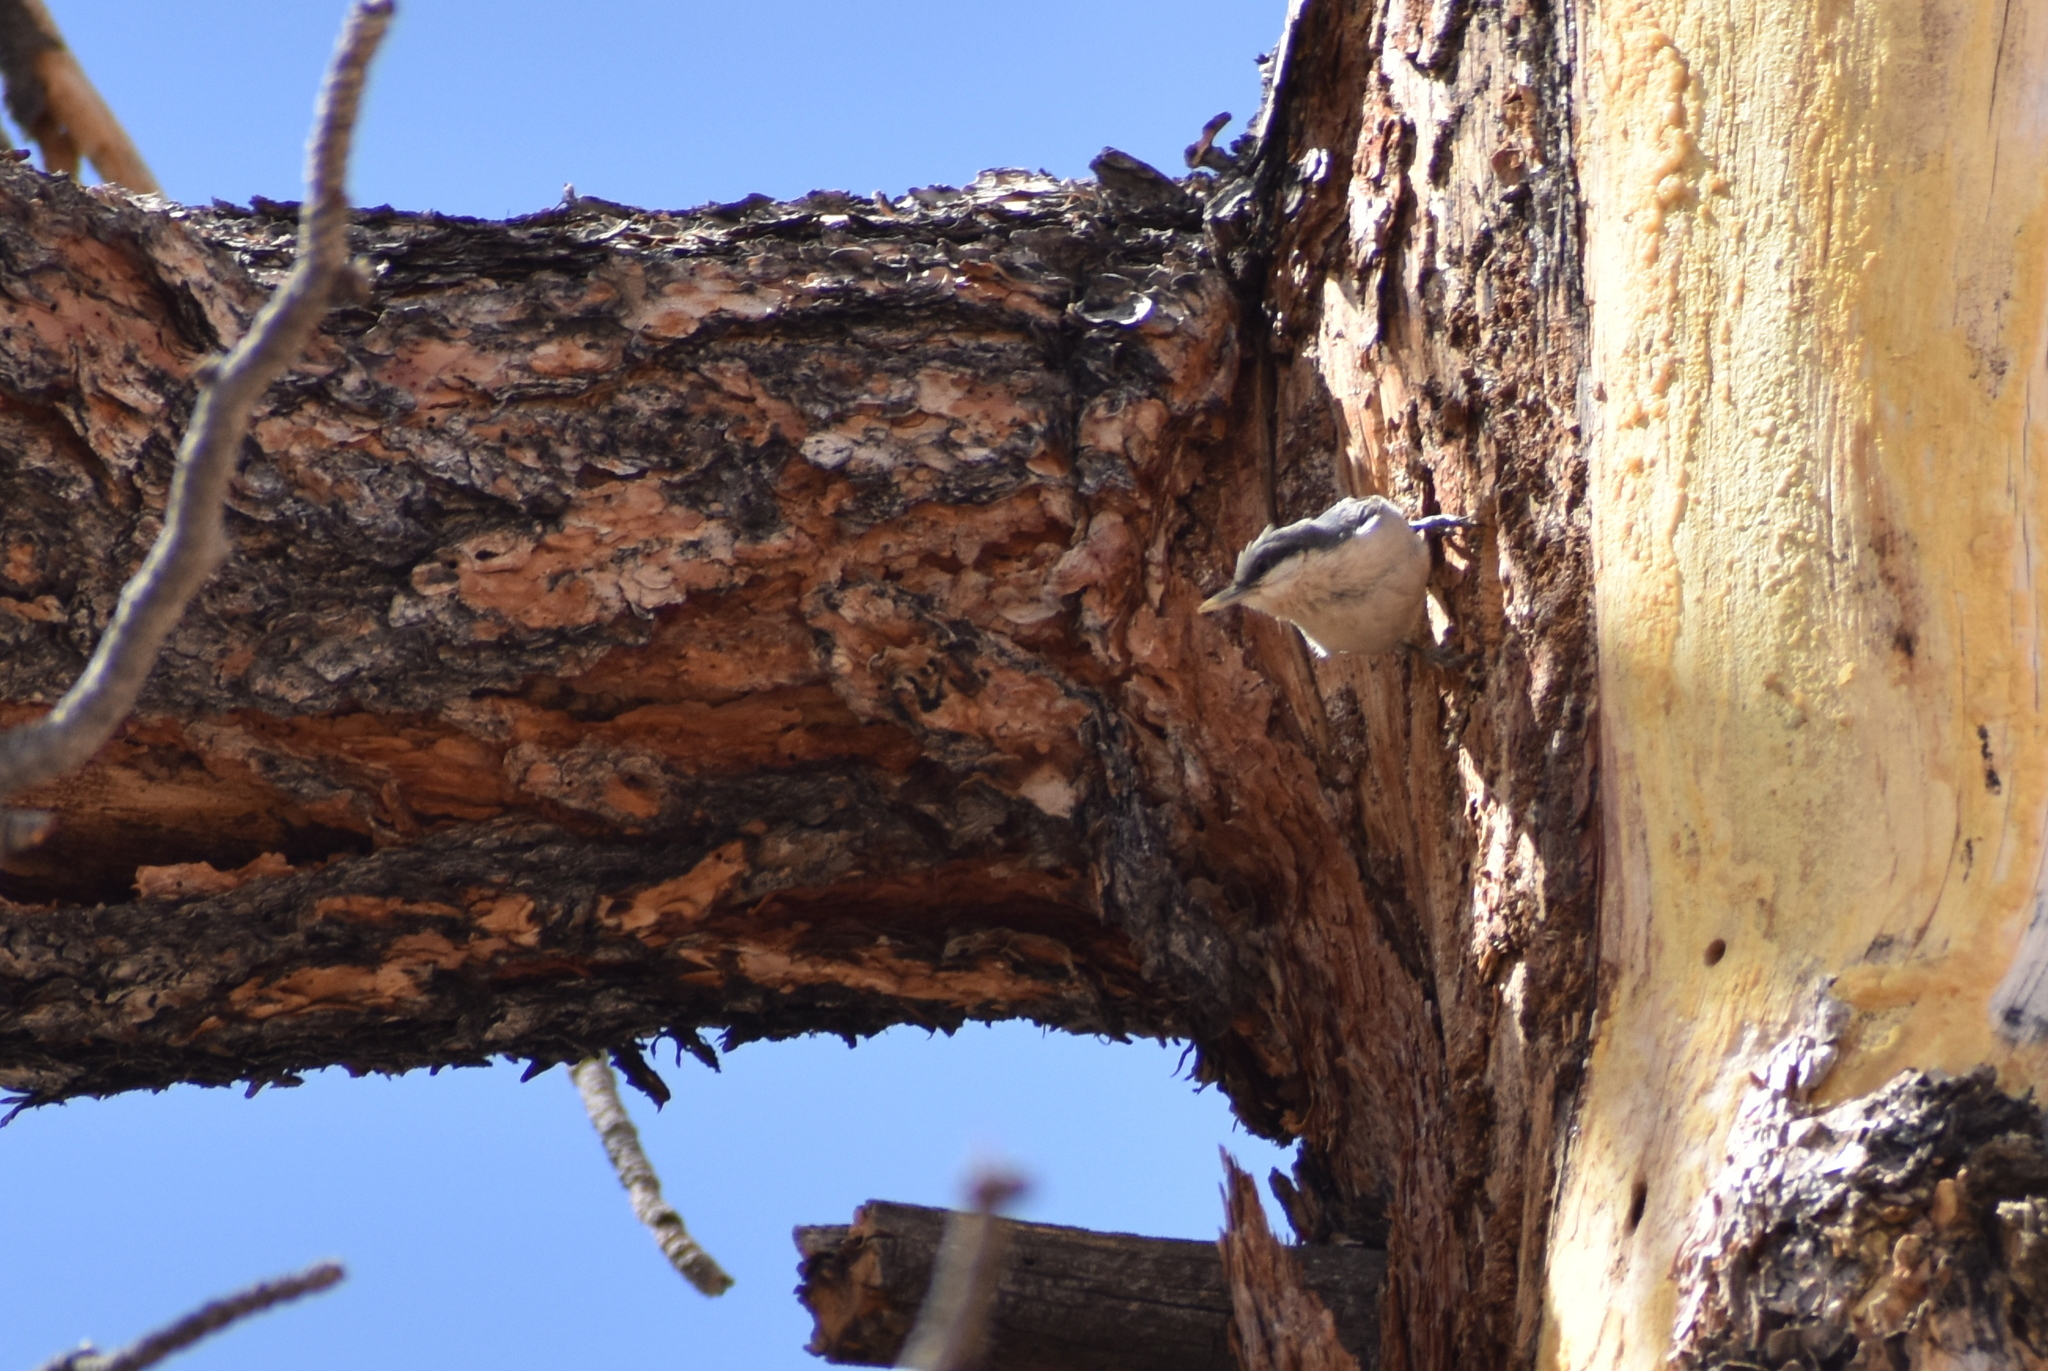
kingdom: Animalia
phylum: Chordata
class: Aves
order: Passeriformes
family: Sittidae
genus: Sitta
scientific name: Sitta pygmaea
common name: Pygmy nuthatch
